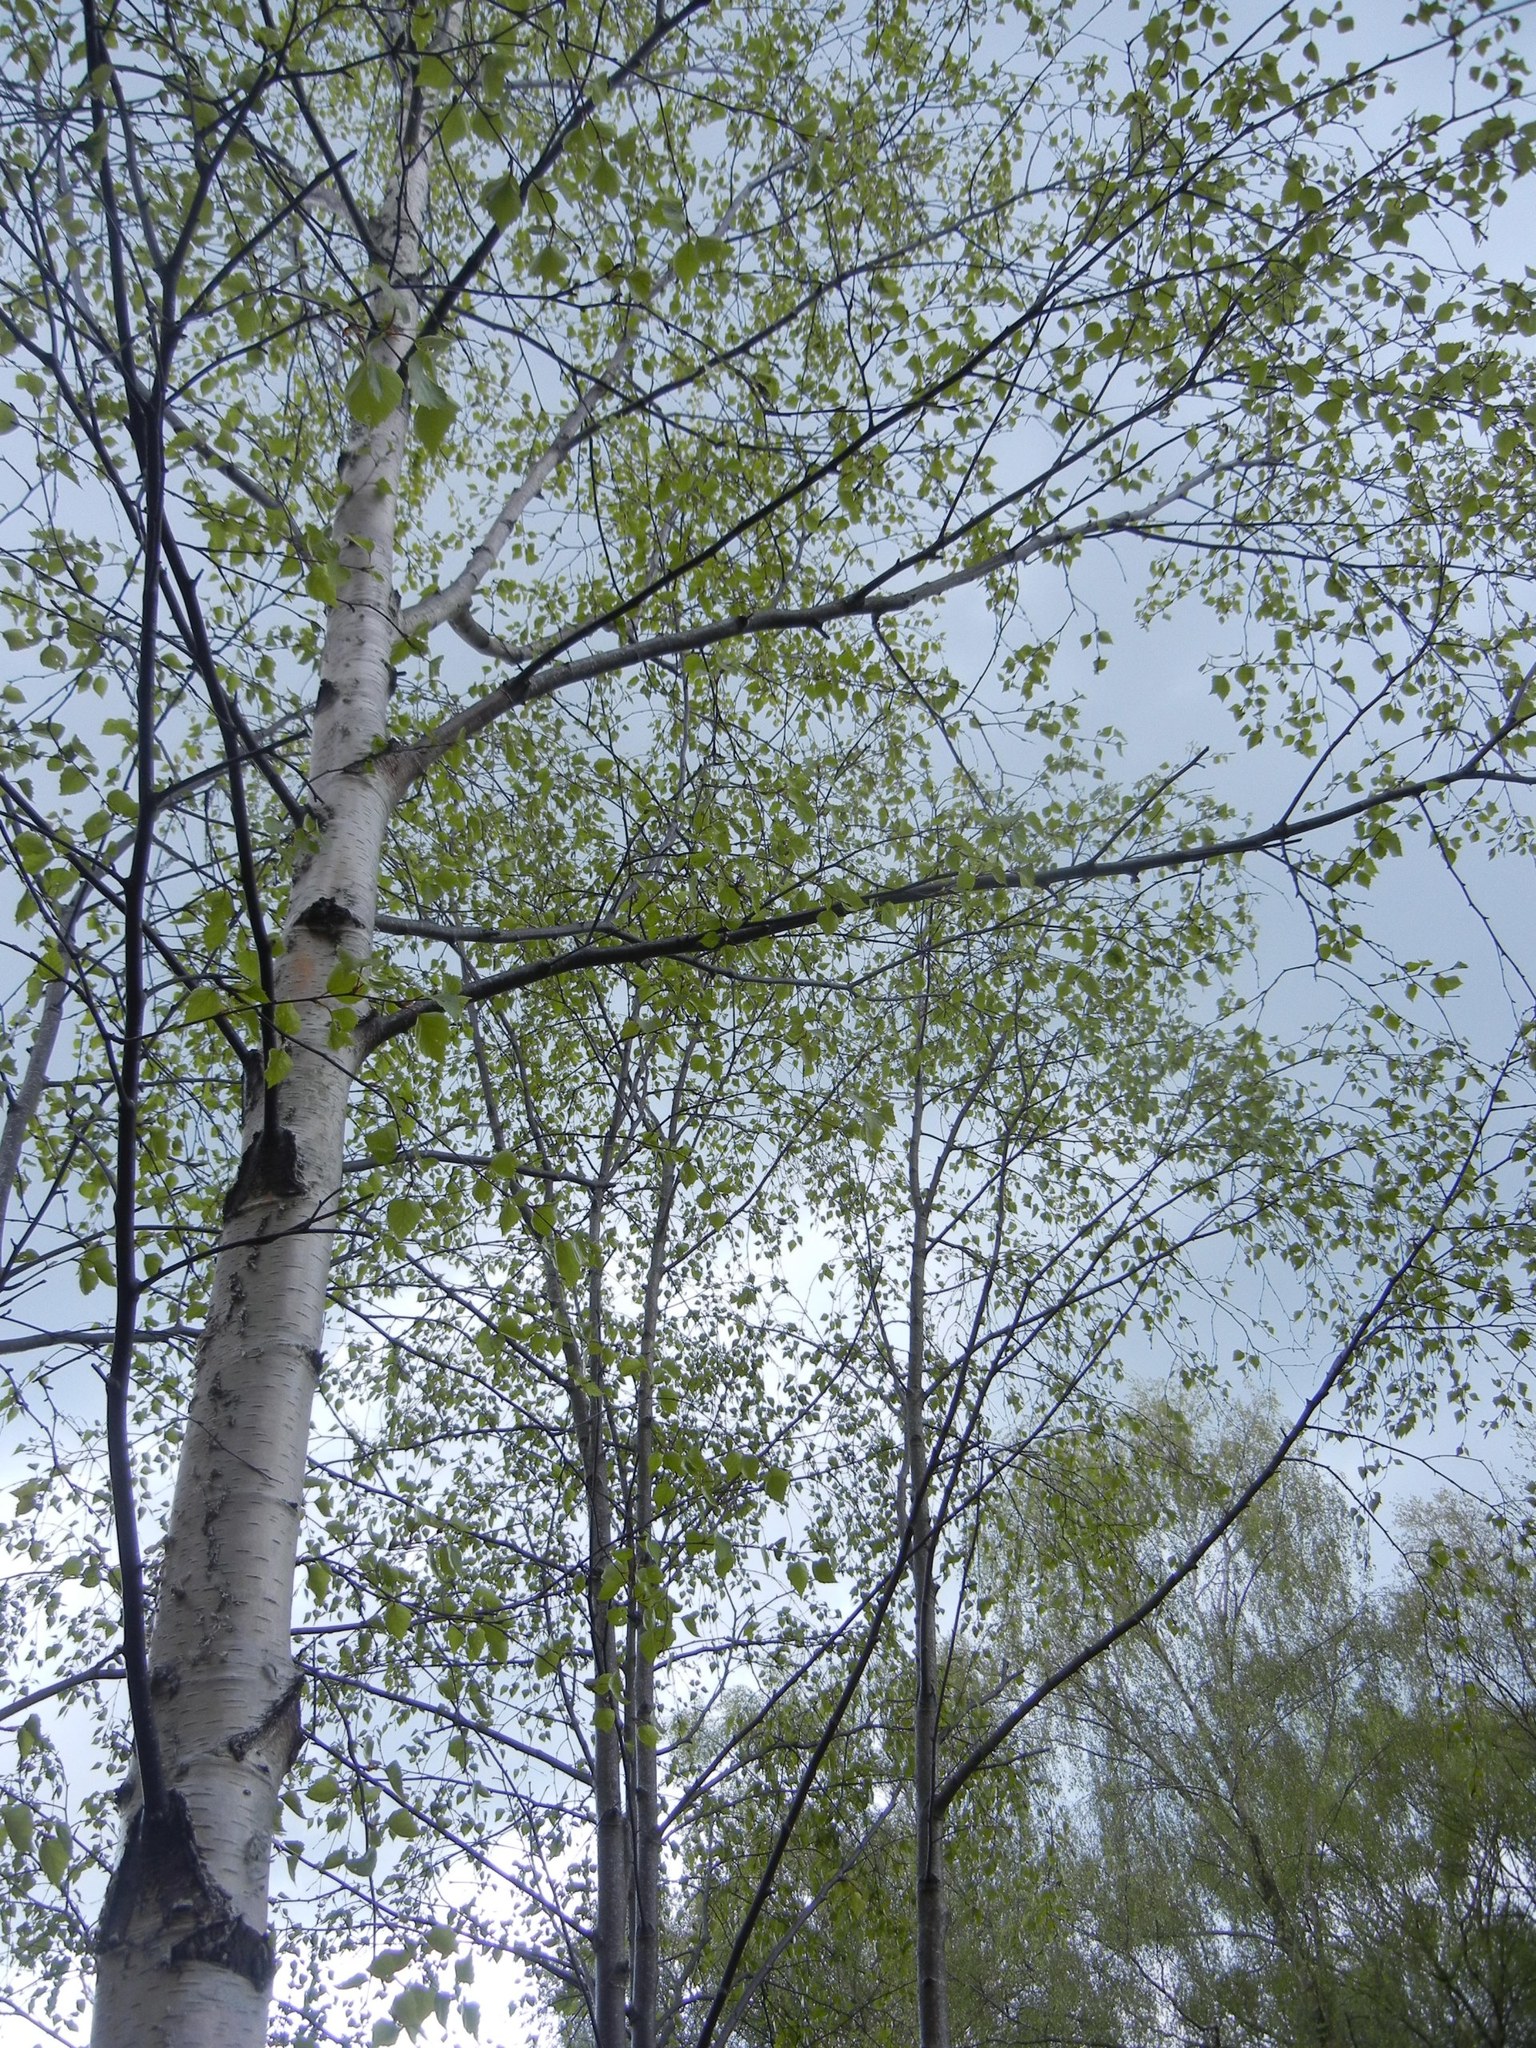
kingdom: Plantae
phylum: Tracheophyta
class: Magnoliopsida
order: Fagales
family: Betulaceae
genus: Betula
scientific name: Betula pendula
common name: Silver birch
